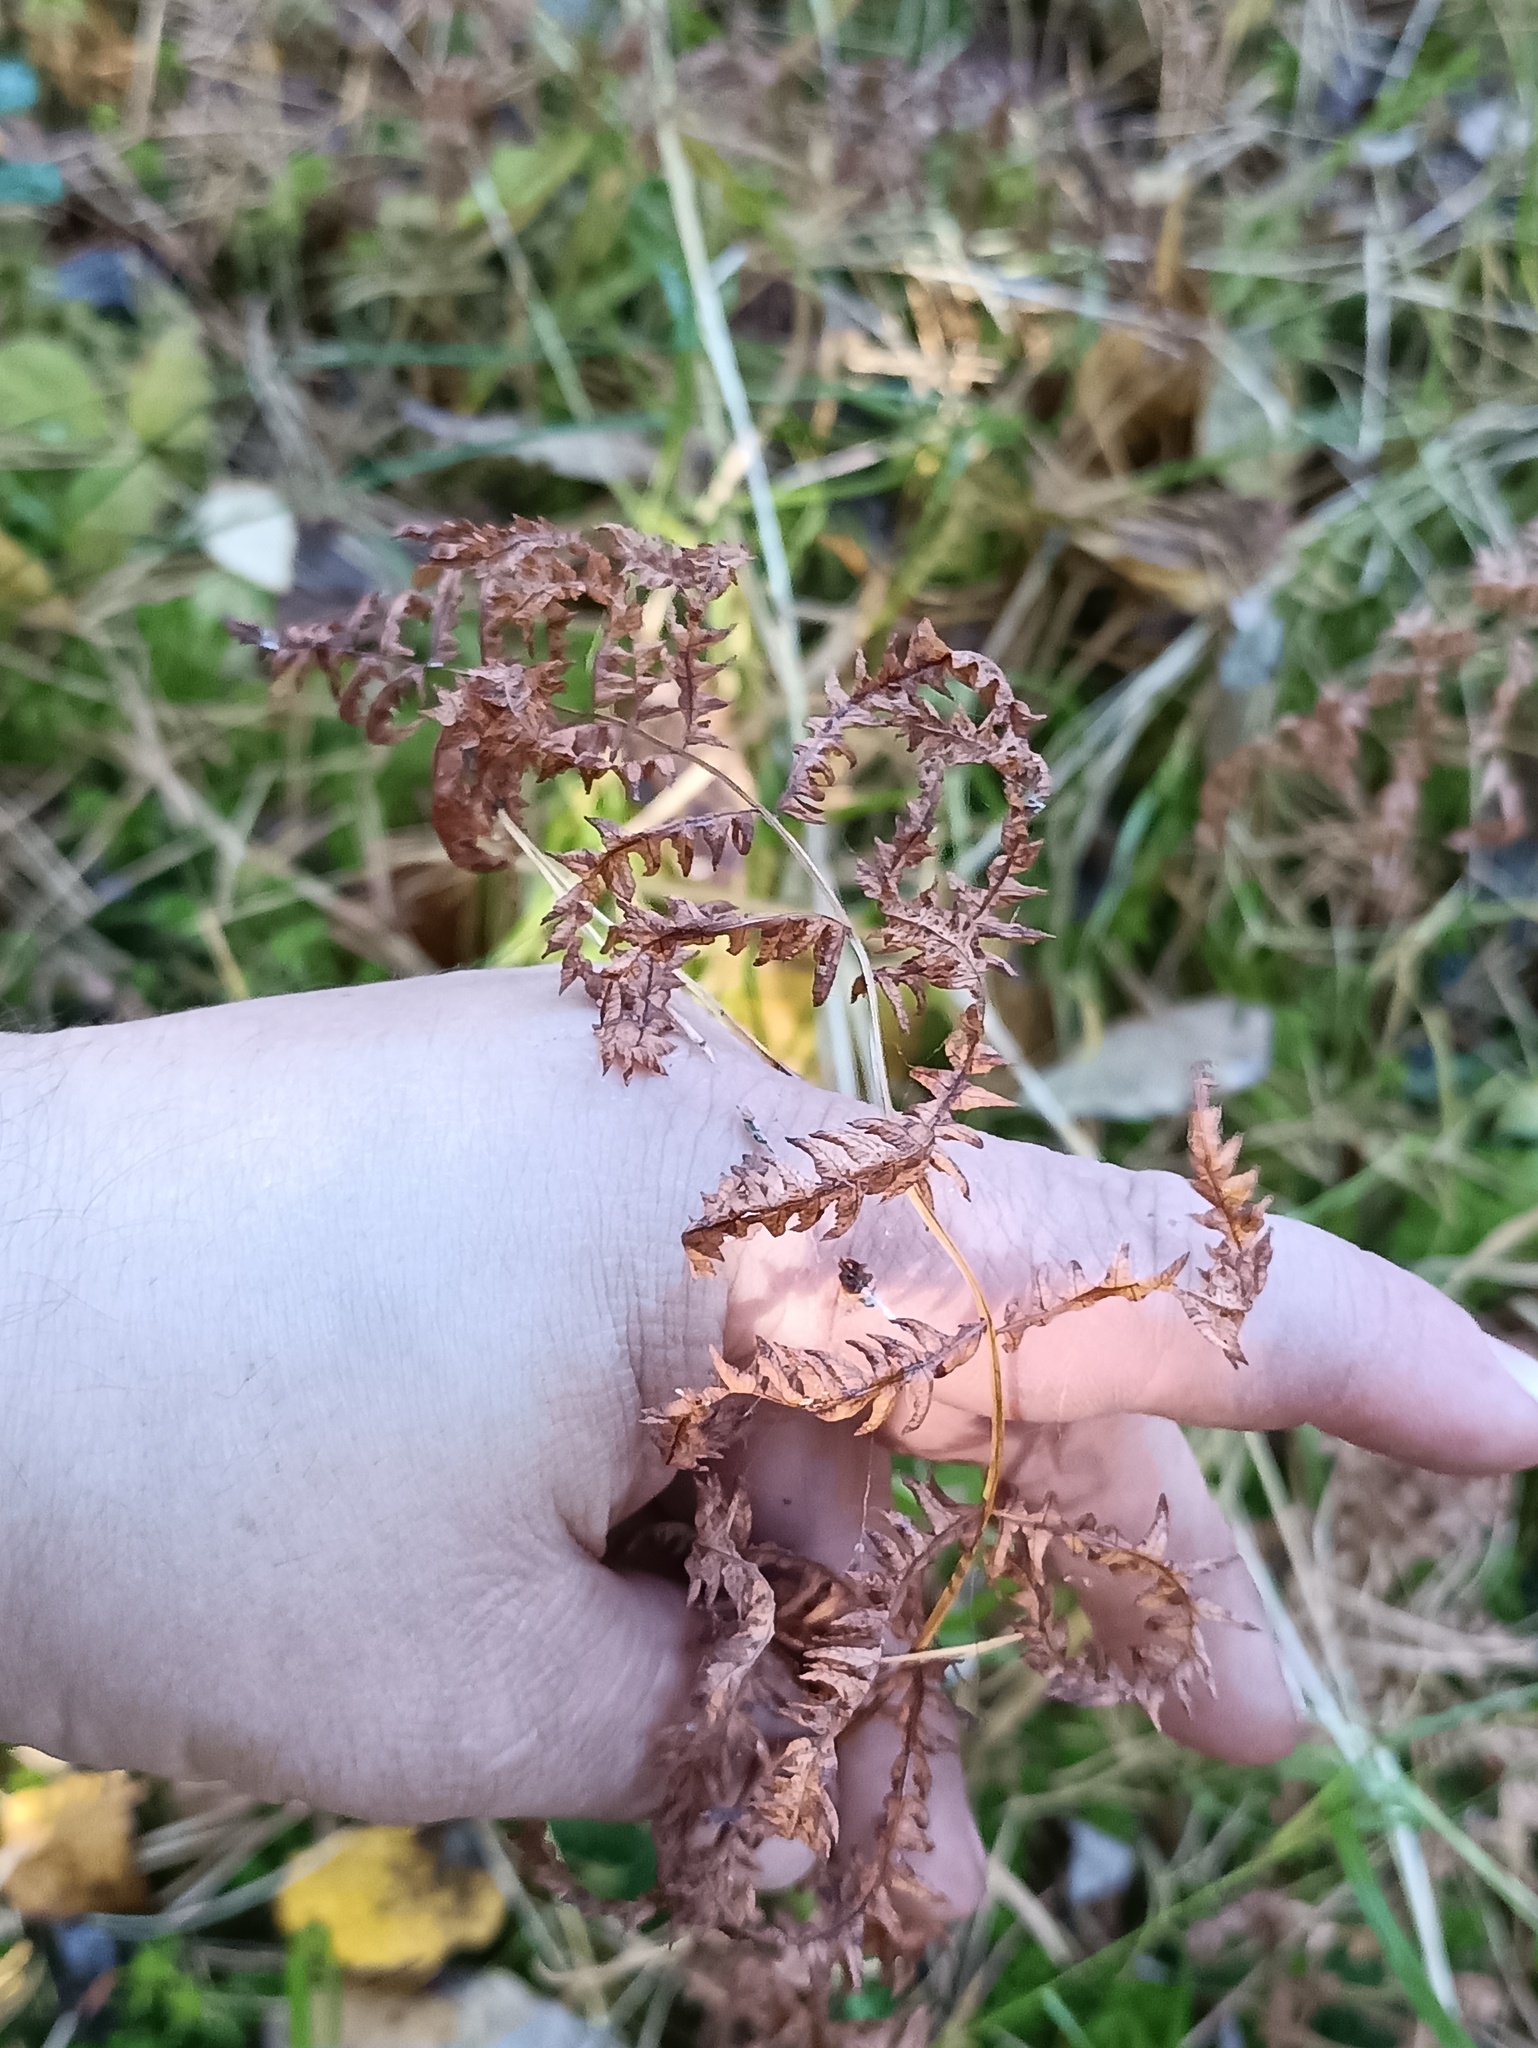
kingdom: Plantae
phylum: Tracheophyta
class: Polypodiopsida
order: Polypodiales
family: Thelypteridaceae
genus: Thelypteris
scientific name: Thelypteris palustris
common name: Marsh fern
